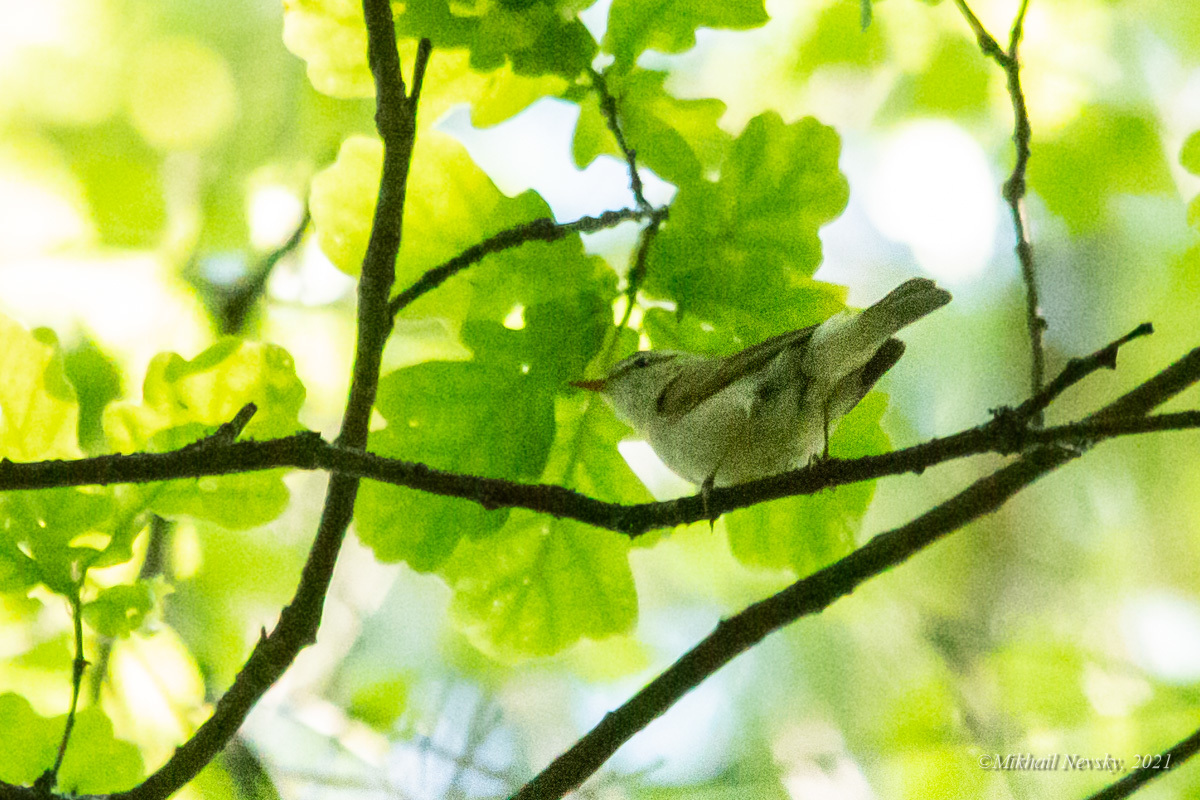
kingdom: Animalia
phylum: Chordata
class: Aves
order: Passeriformes
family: Phylloscopidae
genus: Phylloscopus
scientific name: Phylloscopus trochiloides
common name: Greenish warbler
